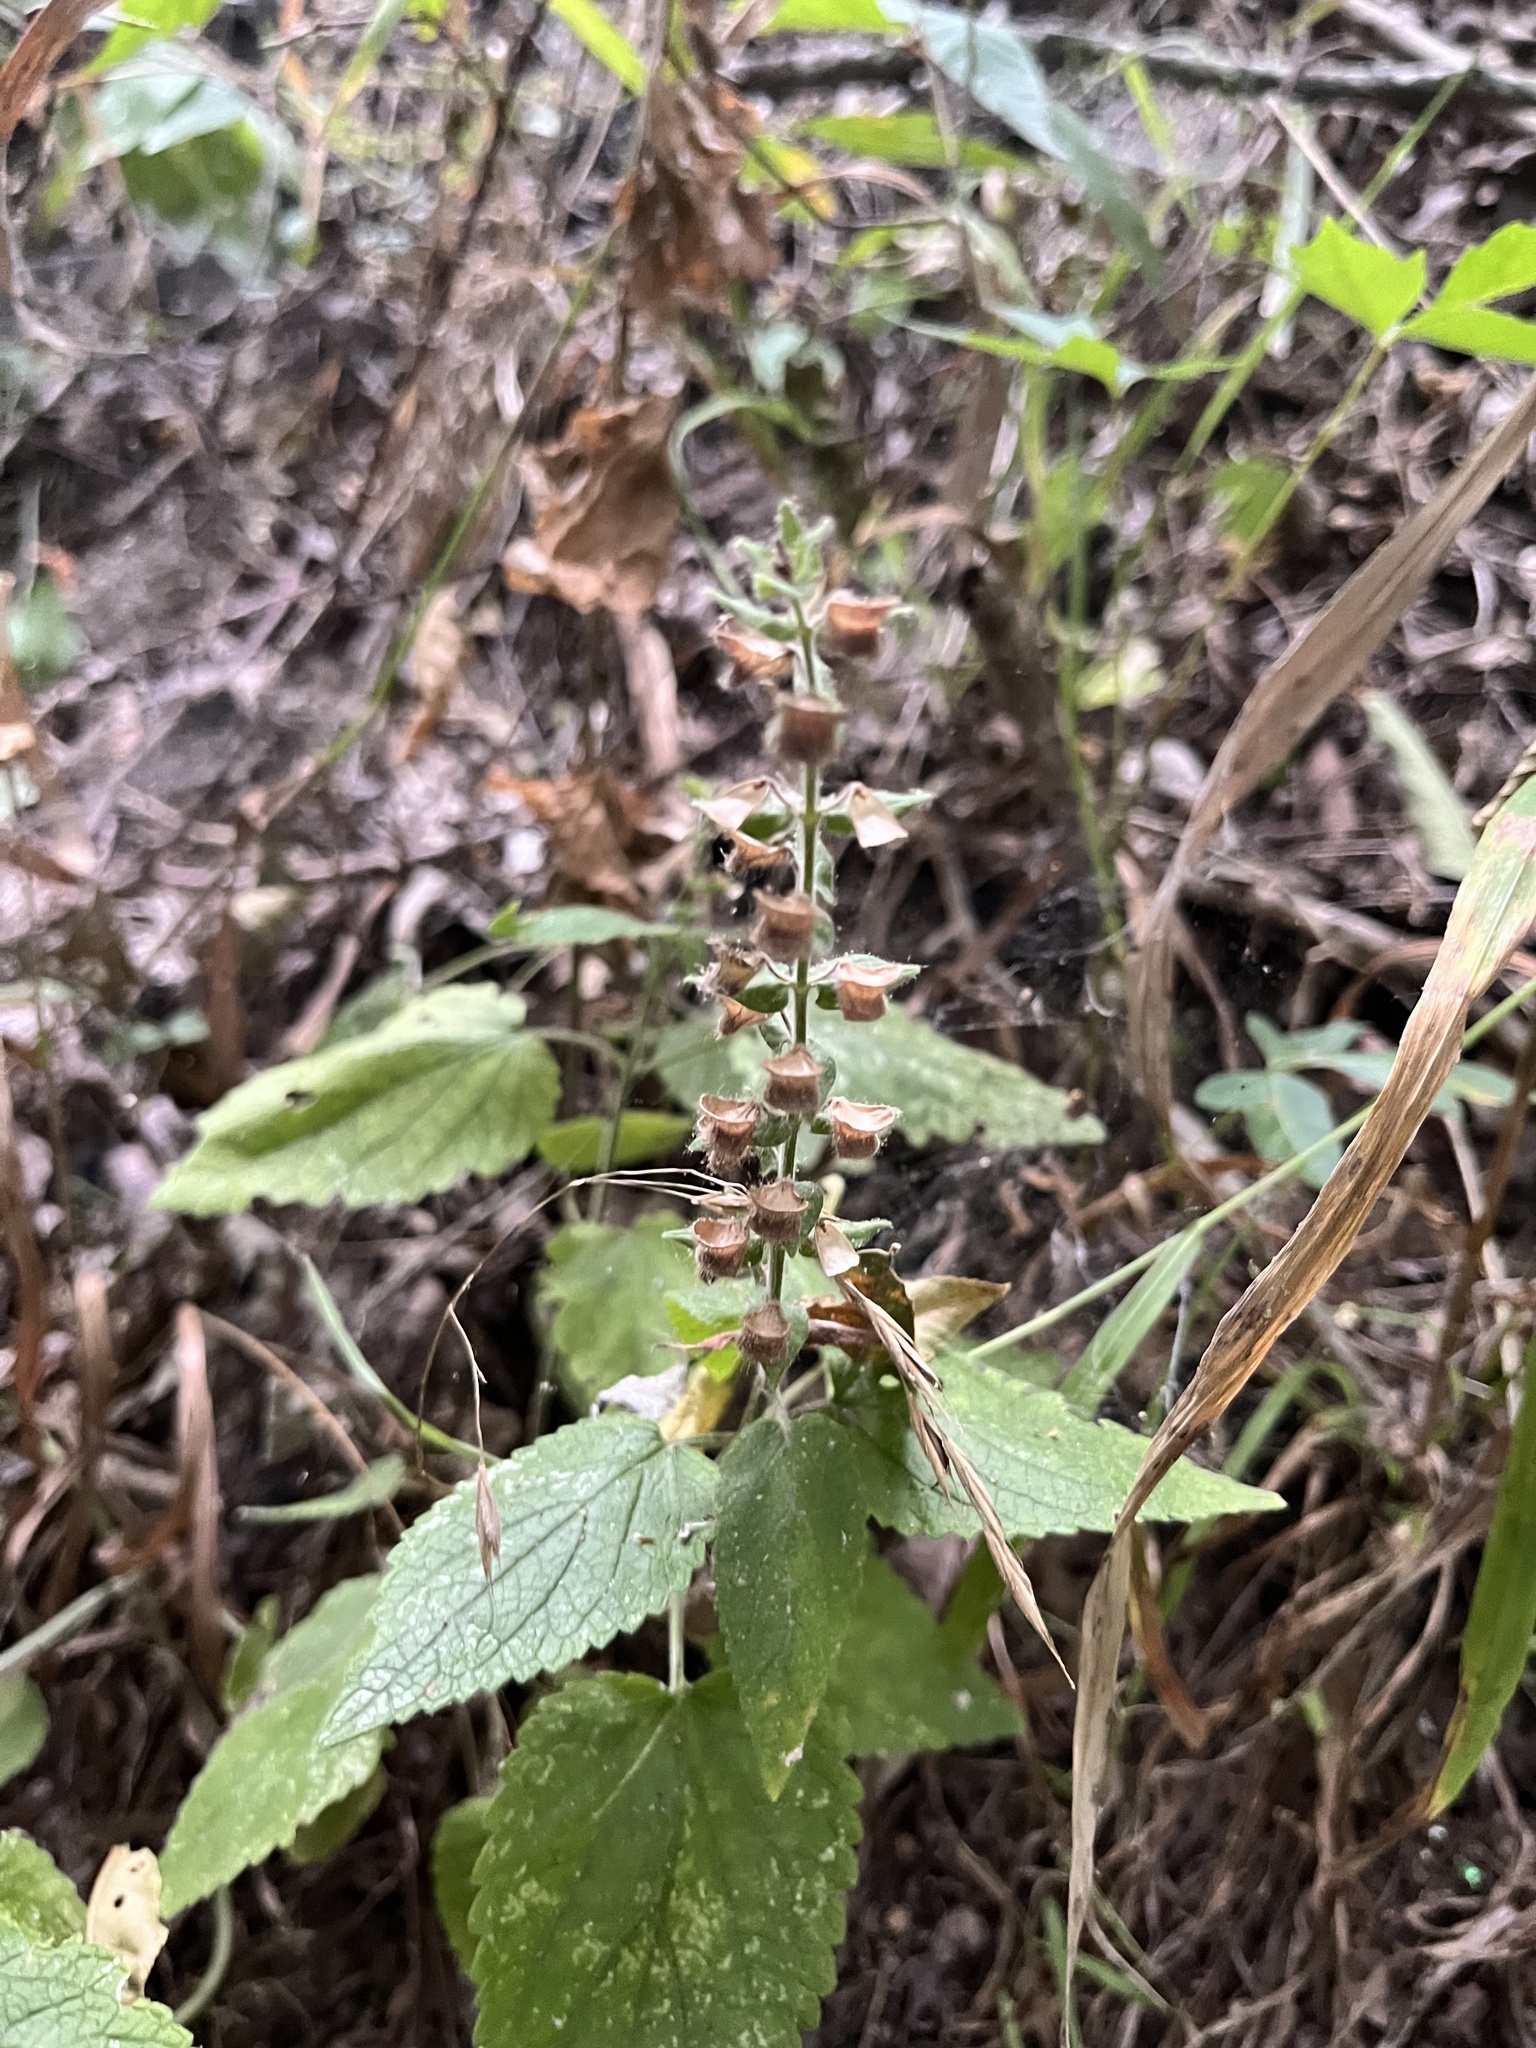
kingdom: Plantae
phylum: Tracheophyta
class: Magnoliopsida
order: Lamiales
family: Lamiaceae
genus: Scutellaria
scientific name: Scutellaria ovata
